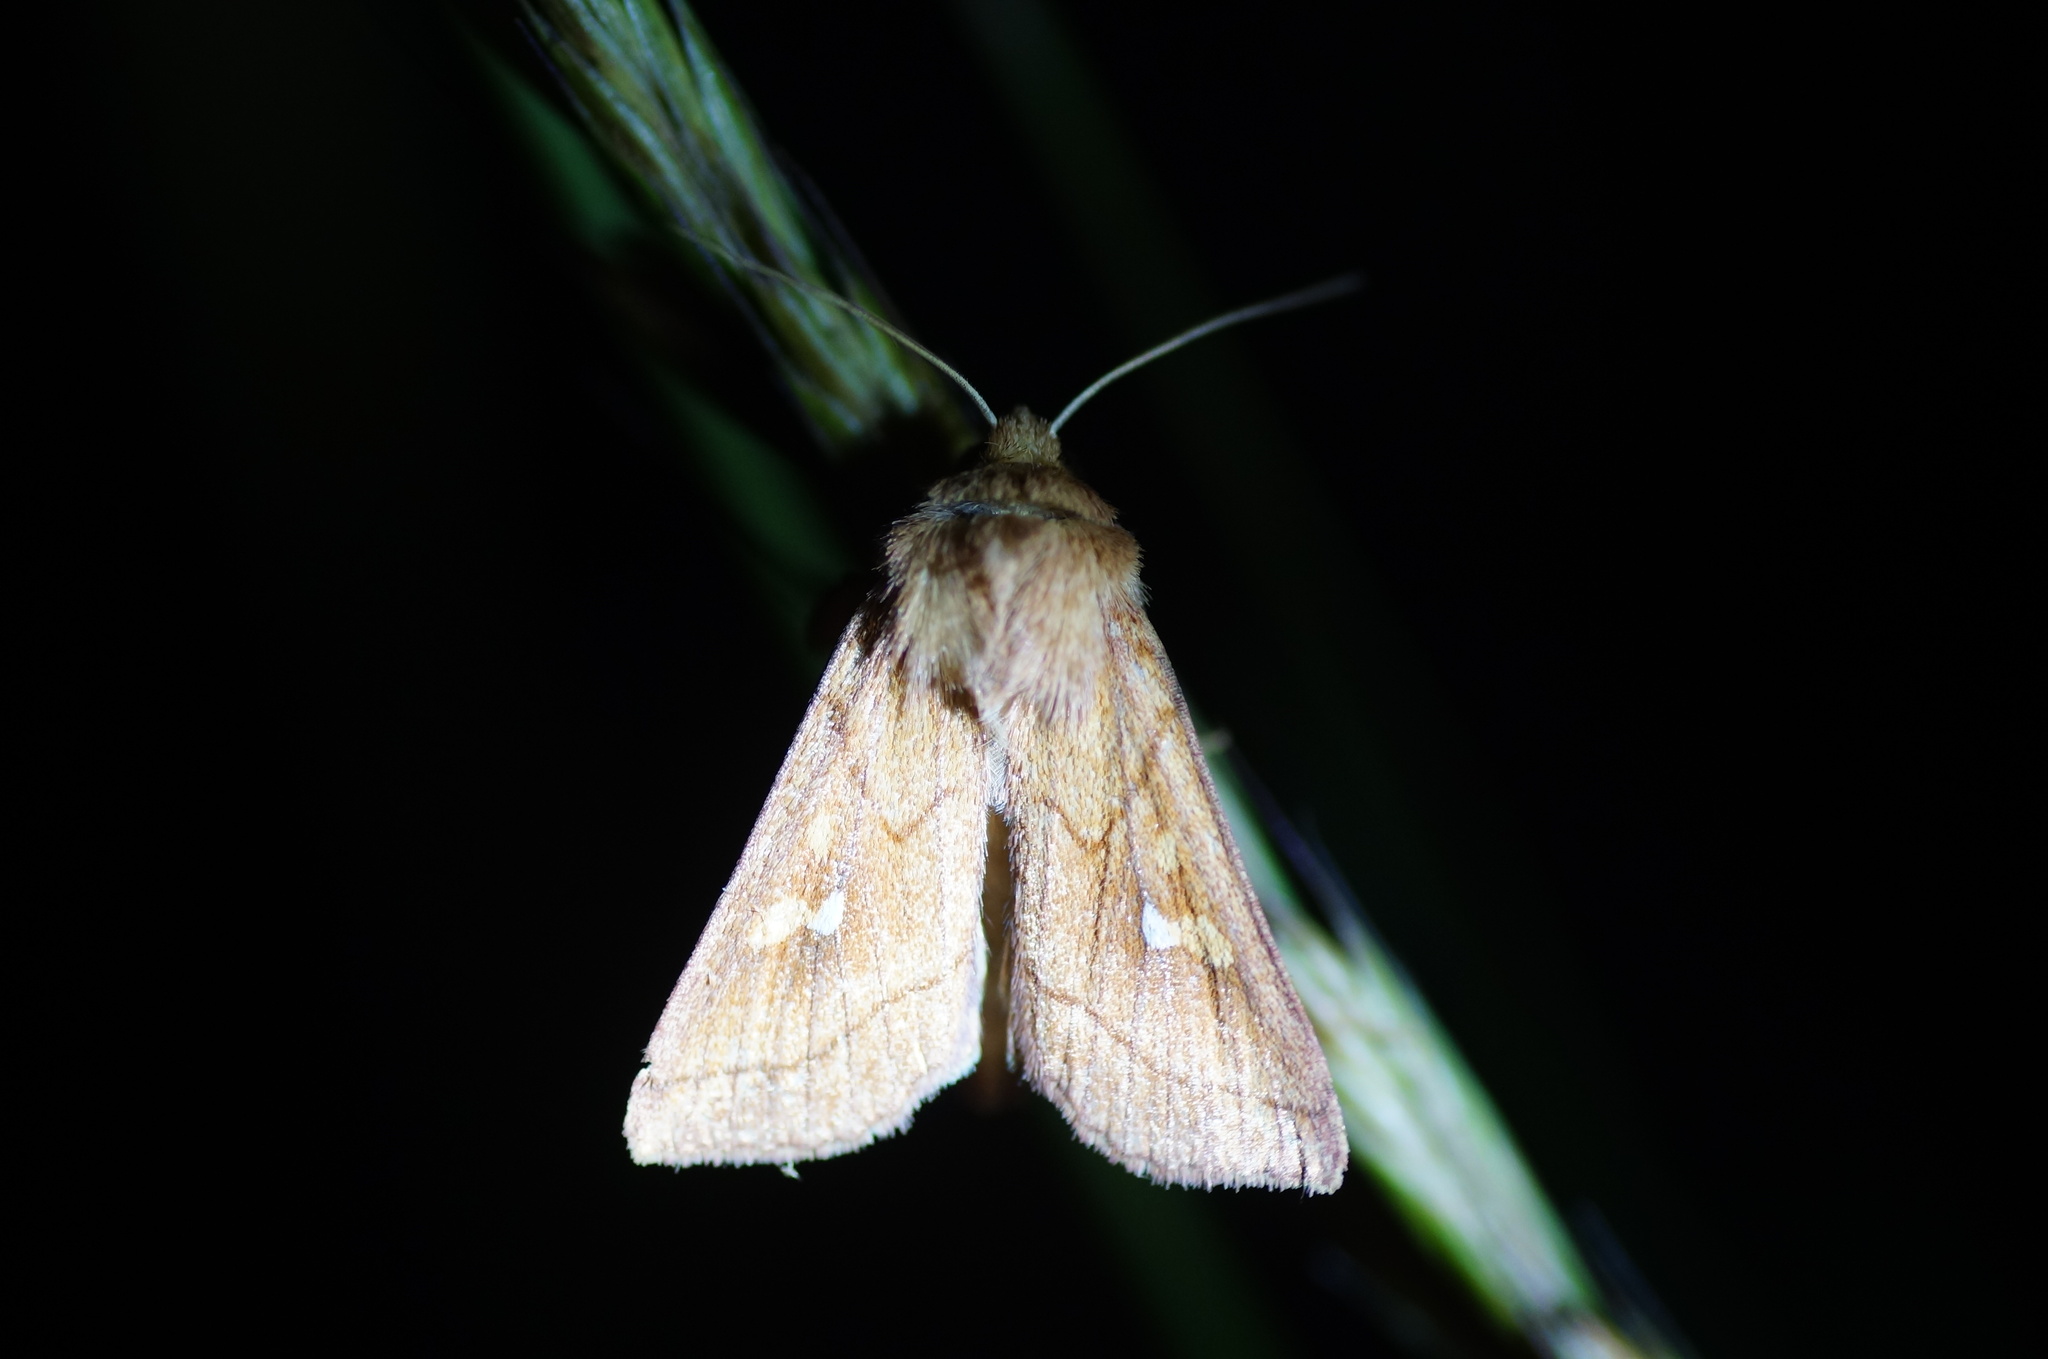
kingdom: Animalia
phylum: Arthropoda
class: Insecta
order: Lepidoptera
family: Noctuidae
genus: Mythimna
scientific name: Mythimna conigera
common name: Brown-line bright-eye
